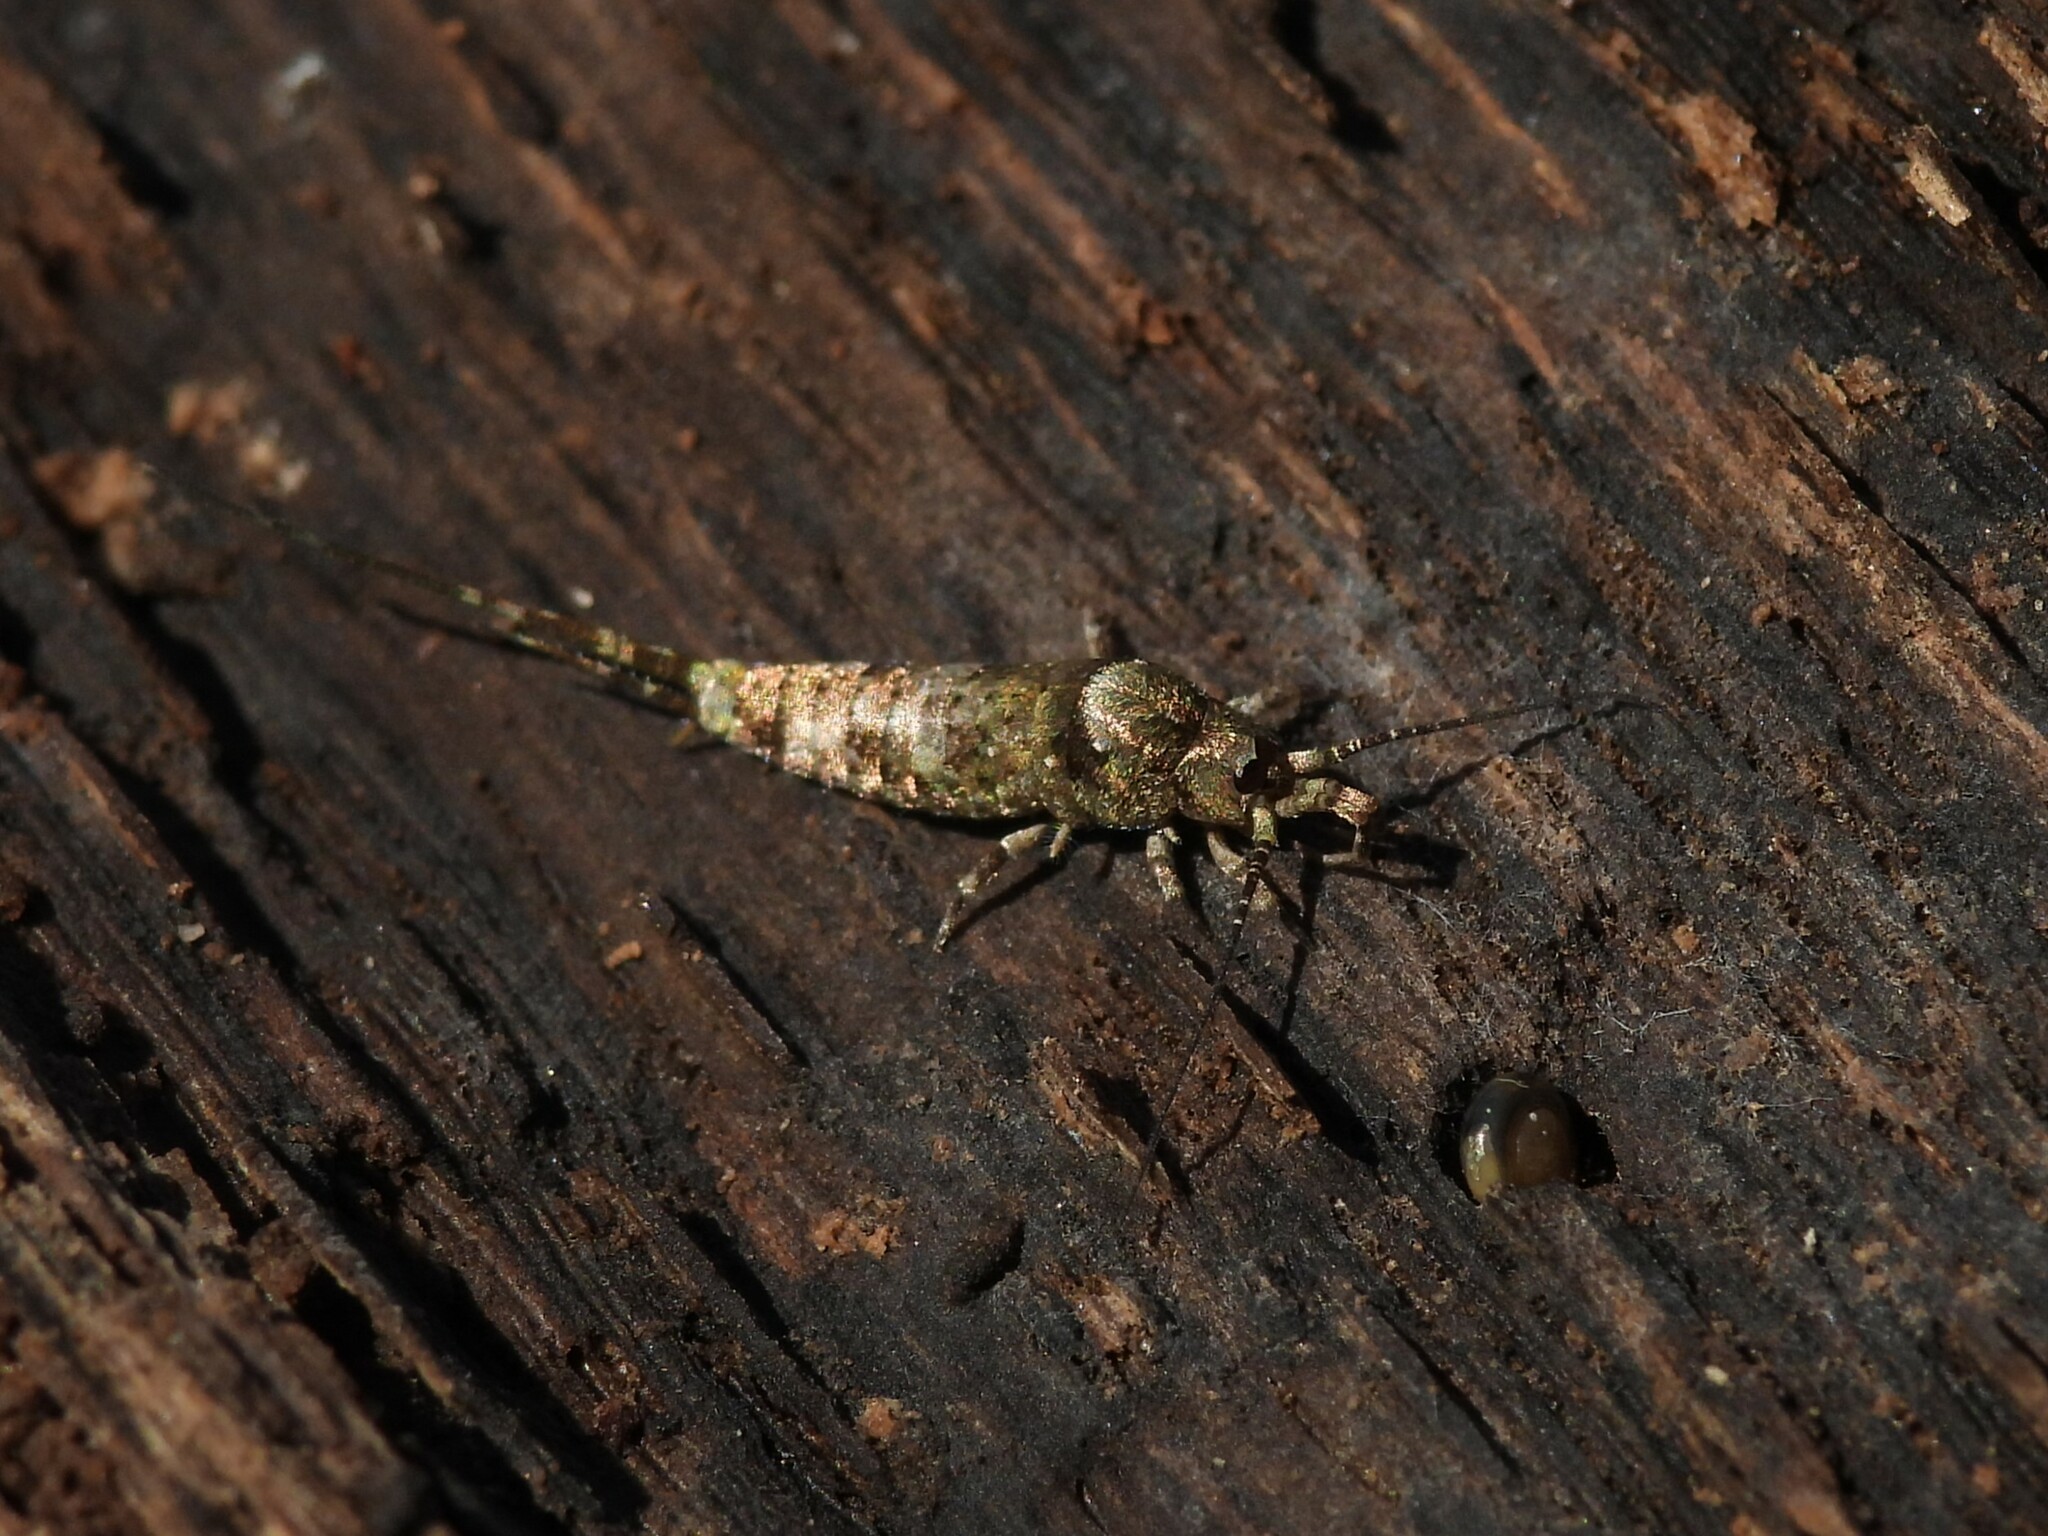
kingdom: Animalia
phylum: Arthropoda
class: Insecta
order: Archaeognatha
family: Machilidae
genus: Trigoniophthalmus
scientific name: Trigoniophthalmus alternatus
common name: Jumping bristletail
